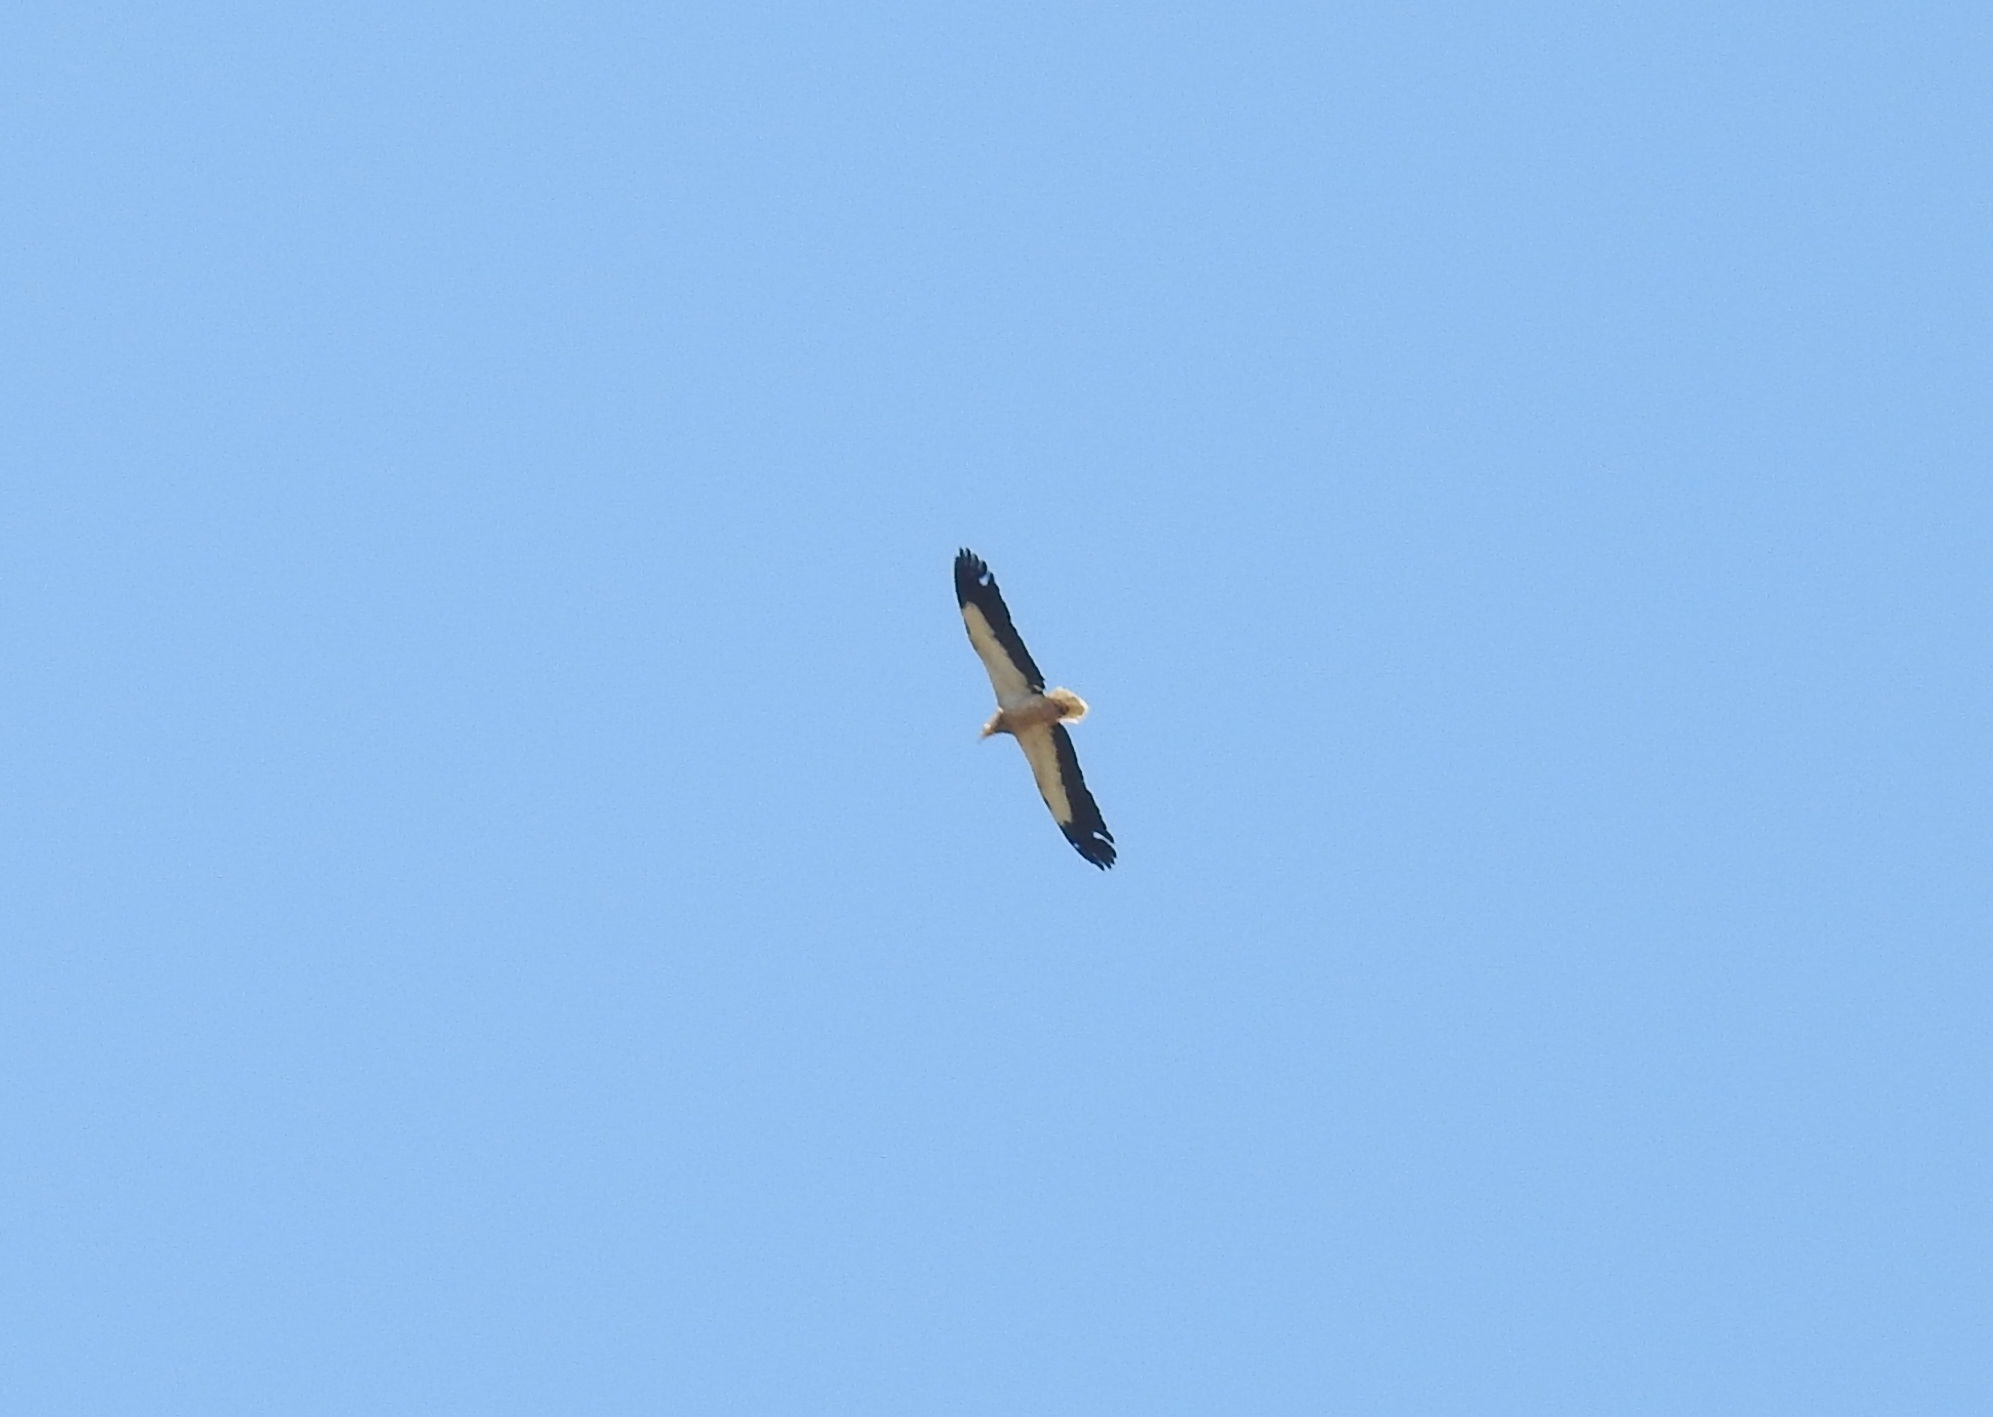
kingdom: Animalia
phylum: Chordata
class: Aves
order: Accipitriformes
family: Accipitridae
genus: Neophron
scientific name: Neophron percnopterus
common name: Egyptian vulture
